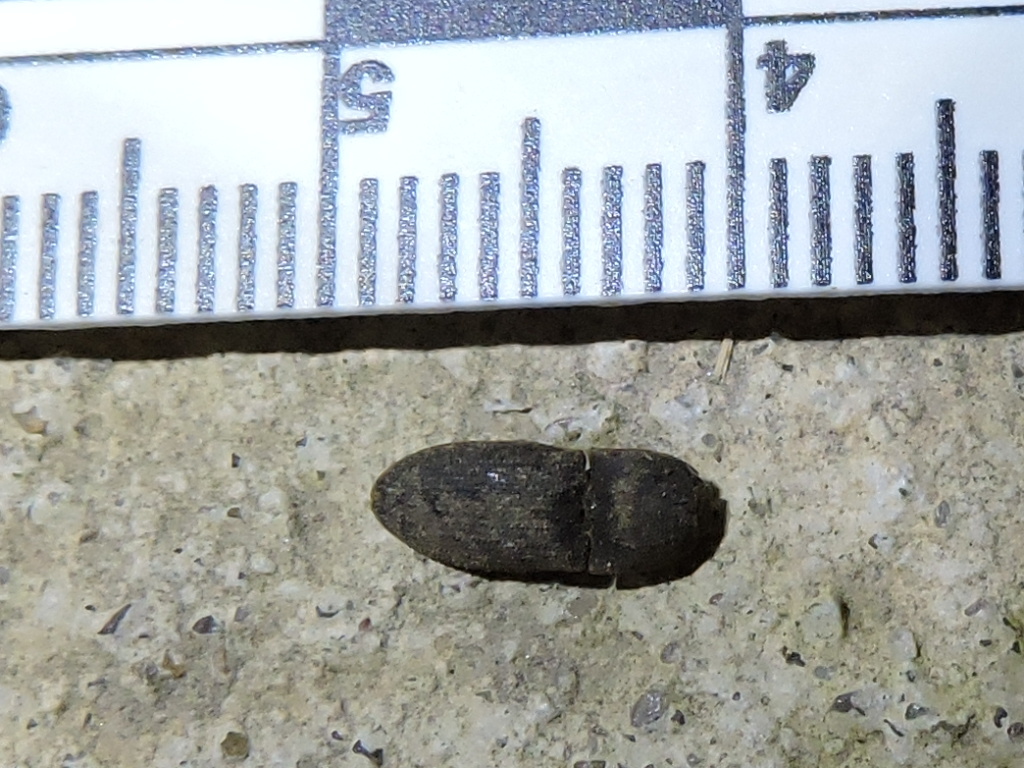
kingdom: Animalia
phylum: Arthropoda
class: Insecta
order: Coleoptera
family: Elateridae
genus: Agrypnus
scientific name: Agrypnus rectangularis
